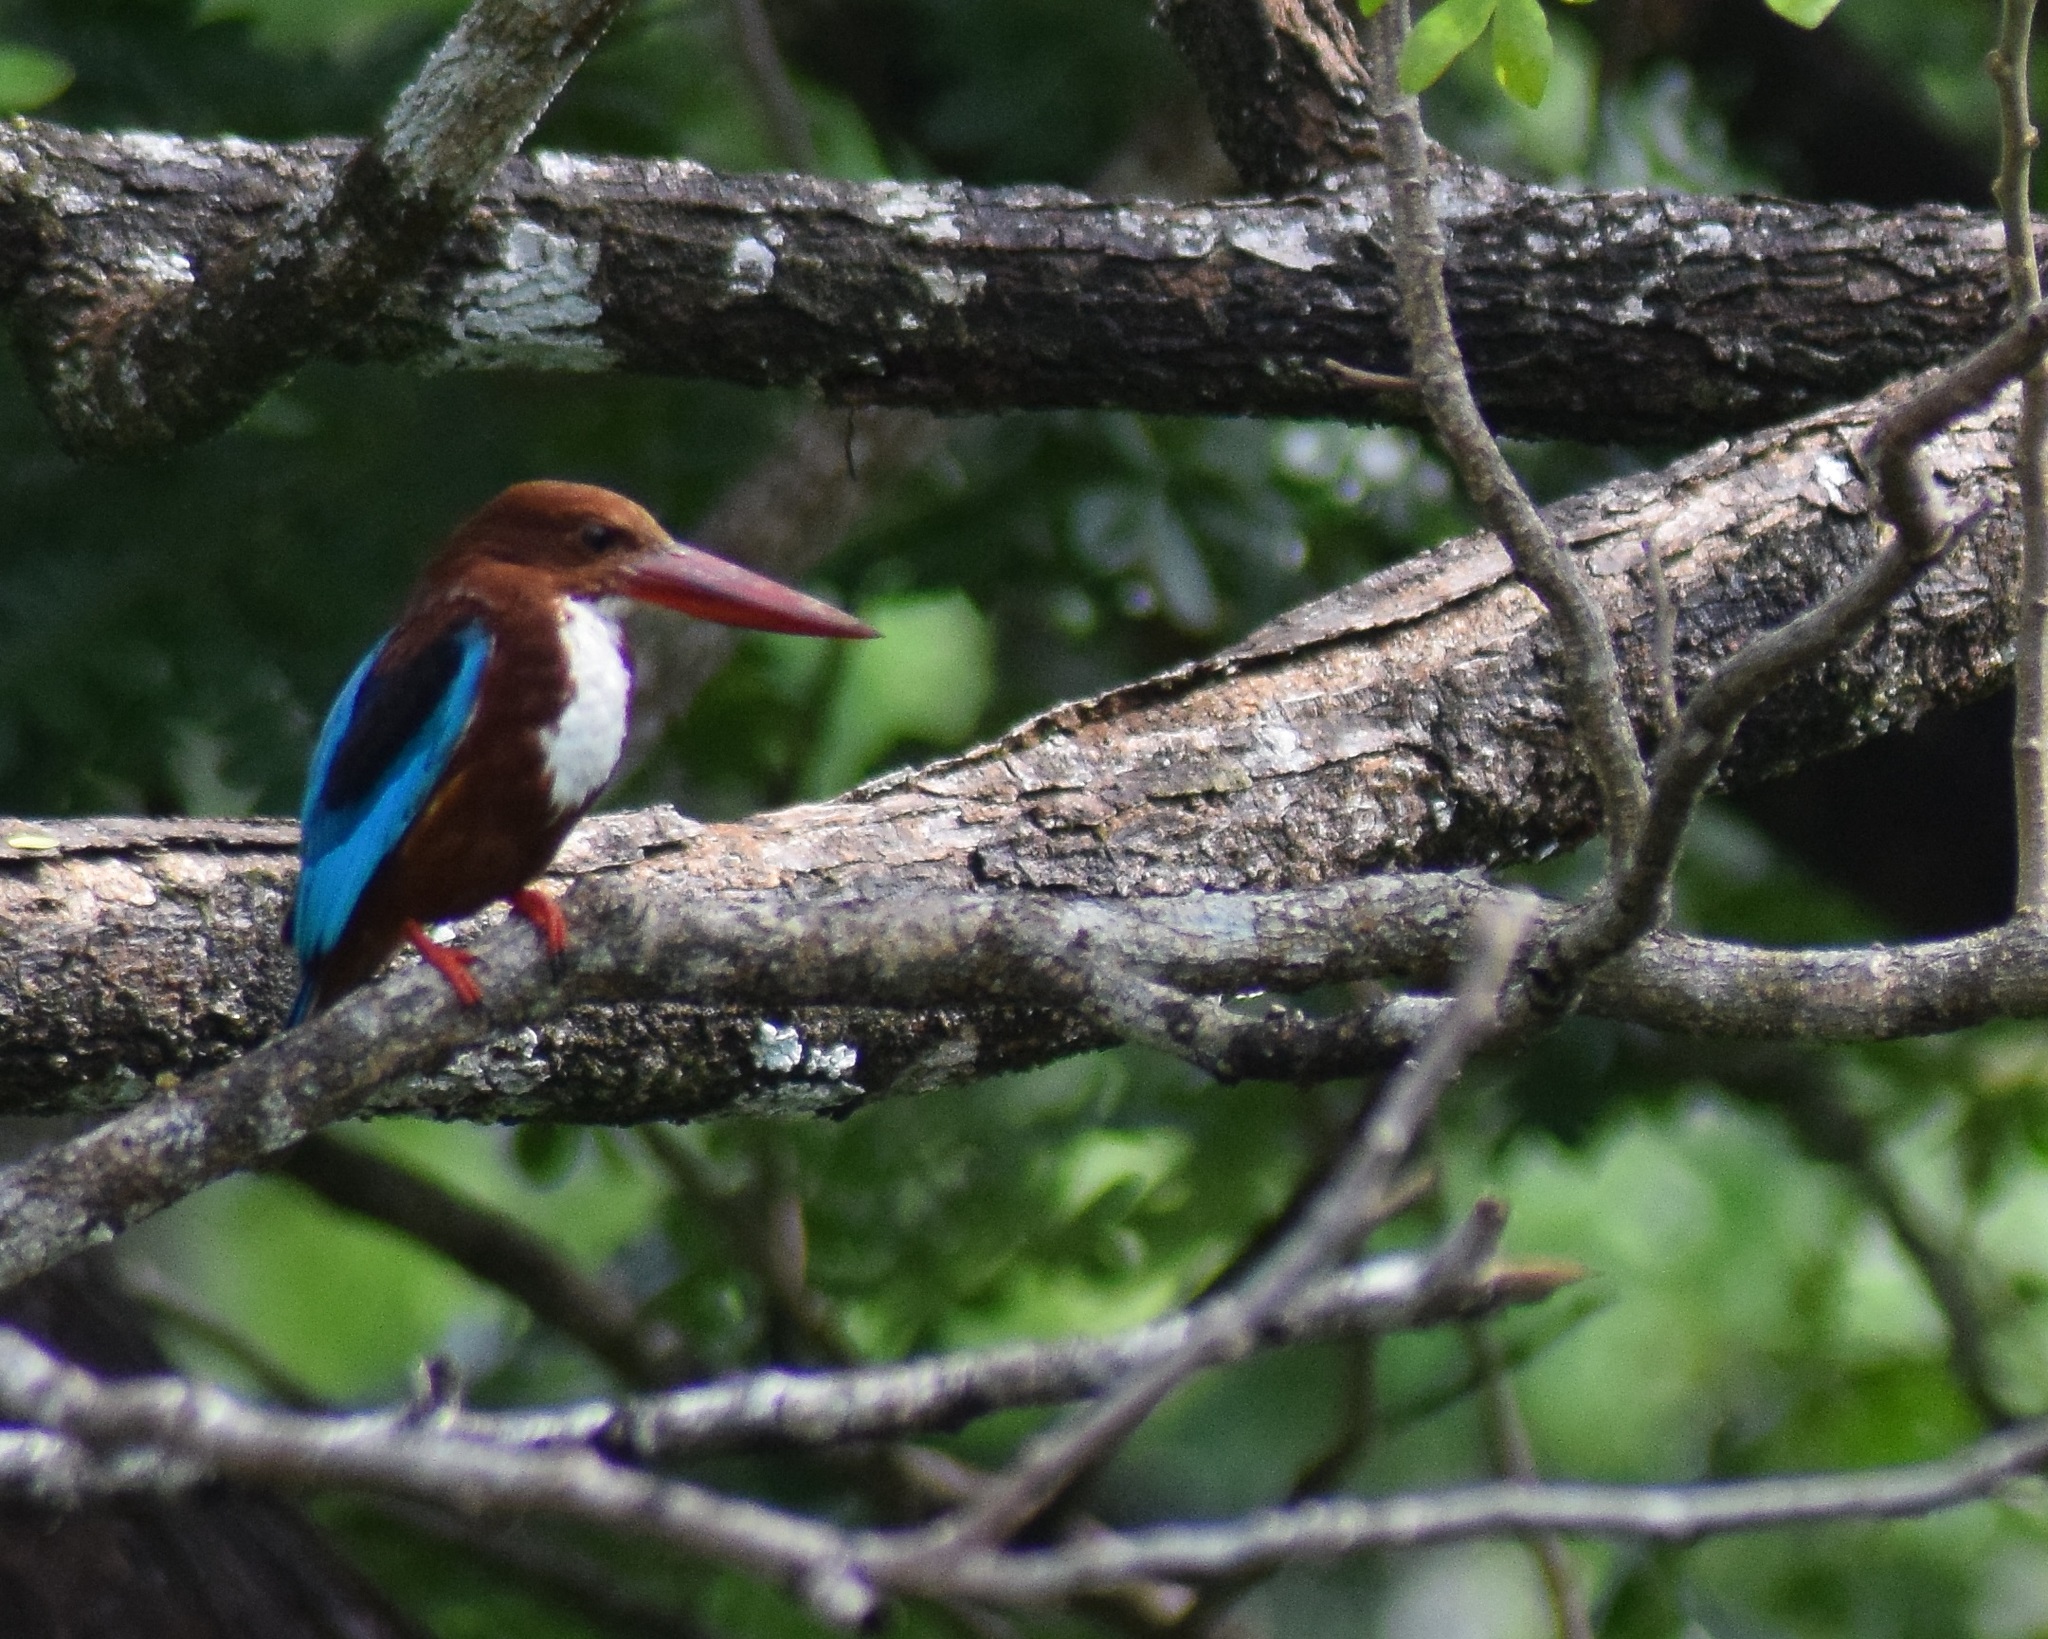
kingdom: Animalia
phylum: Chordata
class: Aves
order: Coraciiformes
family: Alcedinidae
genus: Halcyon
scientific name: Halcyon smyrnensis
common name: White-throated kingfisher
